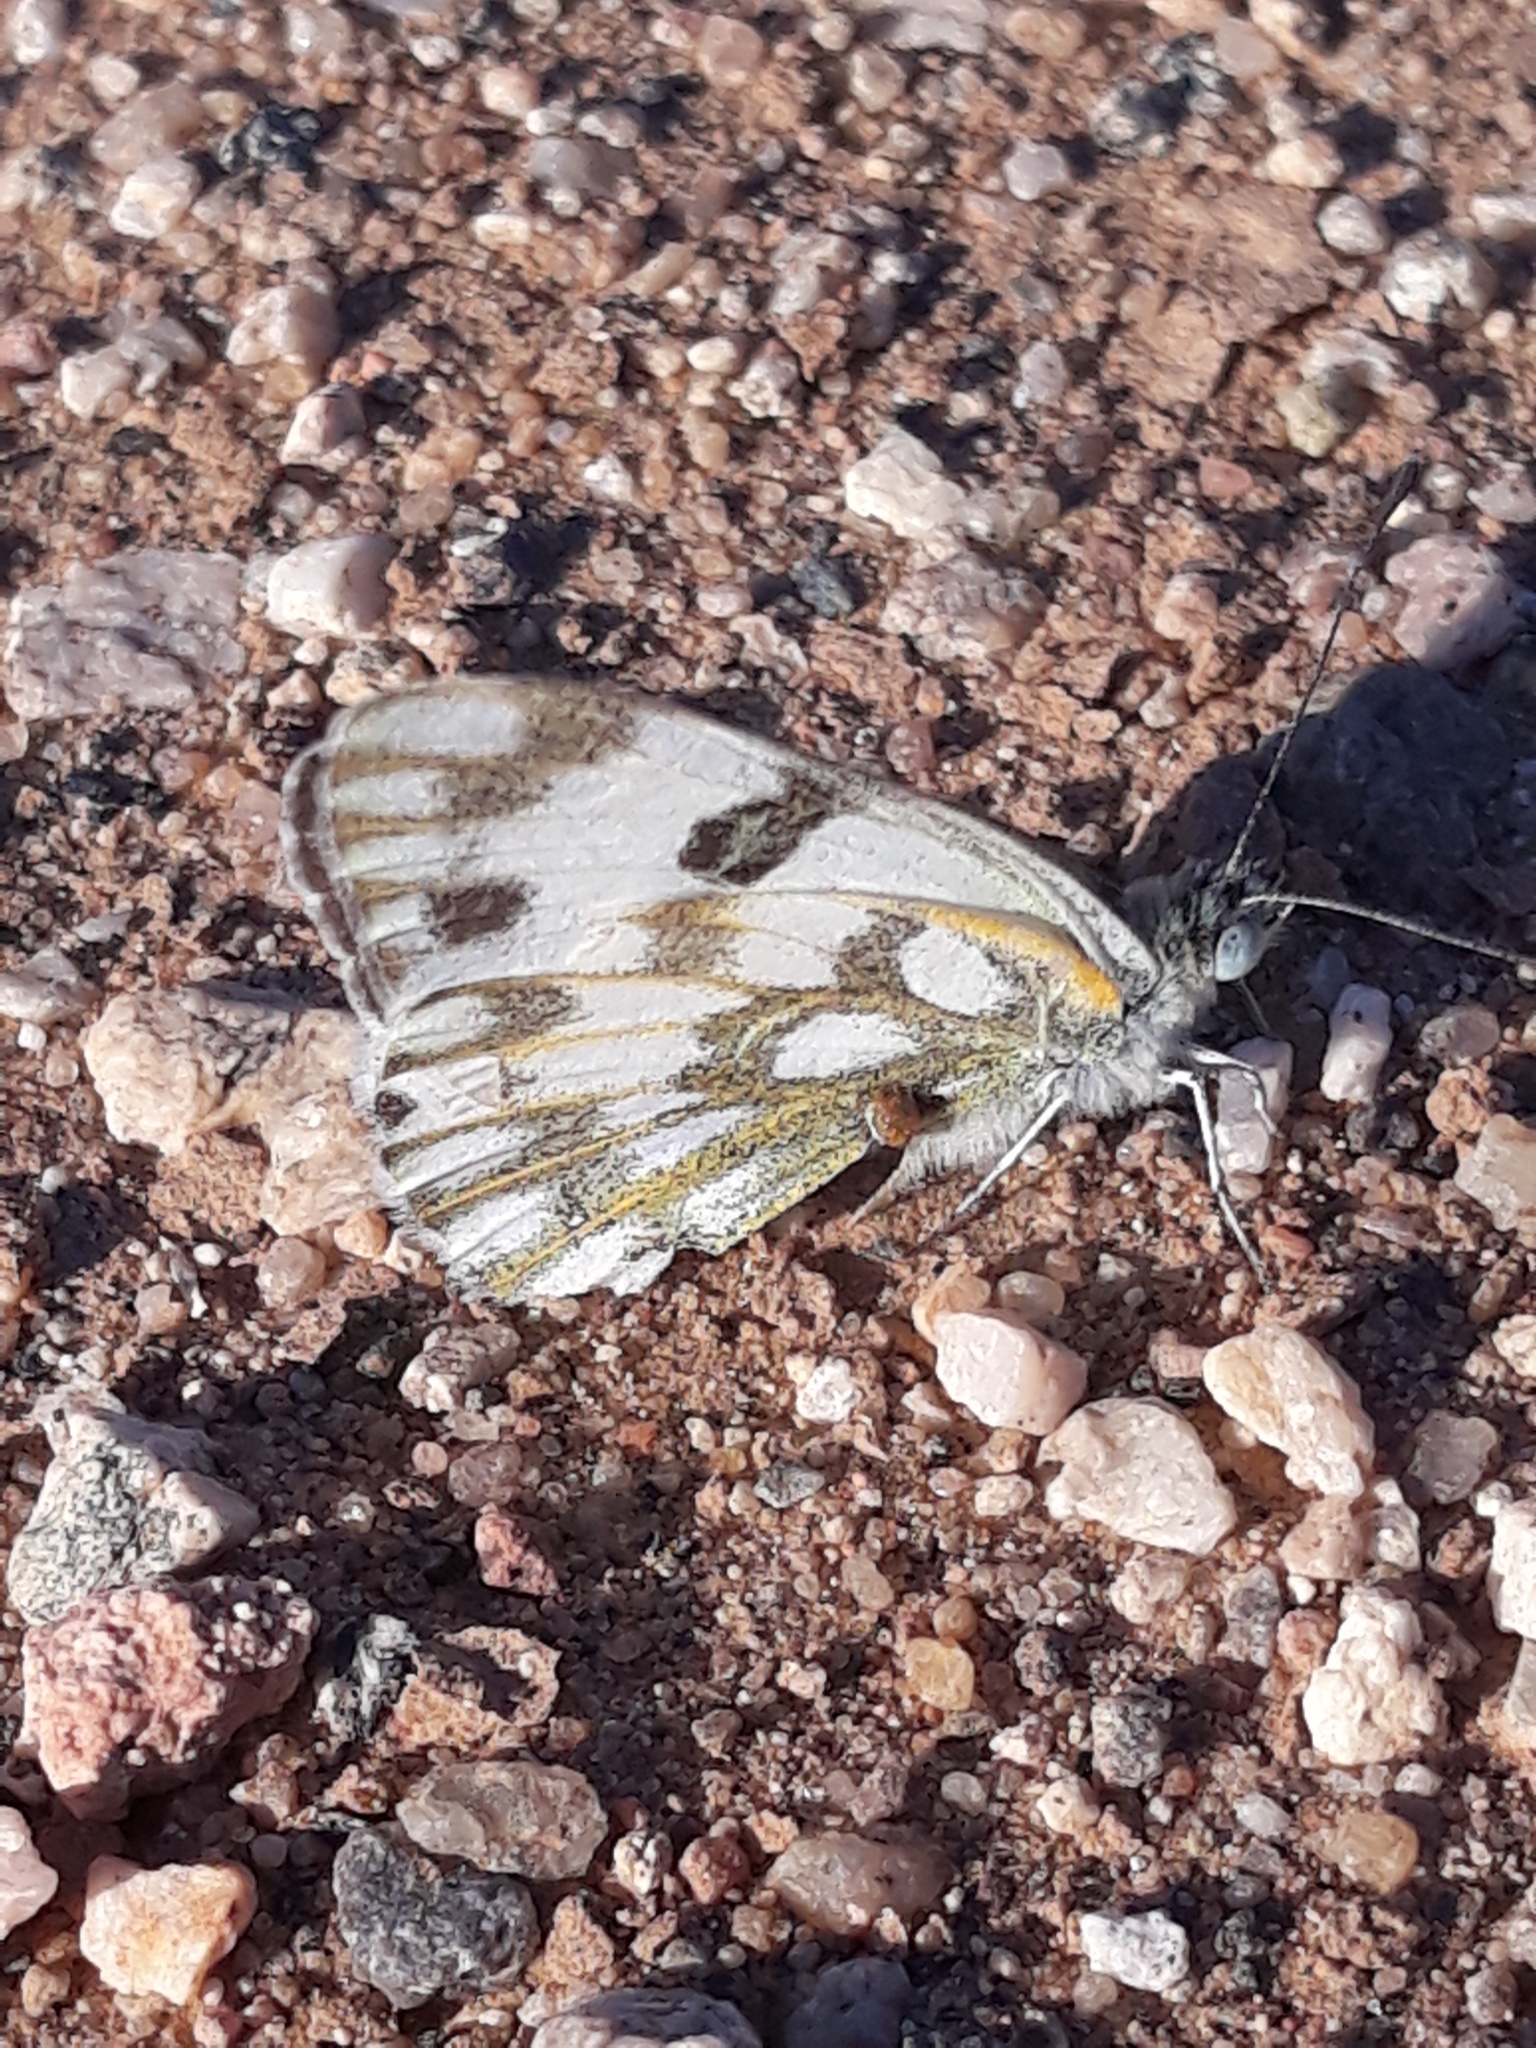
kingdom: Animalia
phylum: Arthropoda
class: Insecta
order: Lepidoptera
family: Pieridae
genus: Pontia
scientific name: Pontia glauconome
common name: Desert bath white
